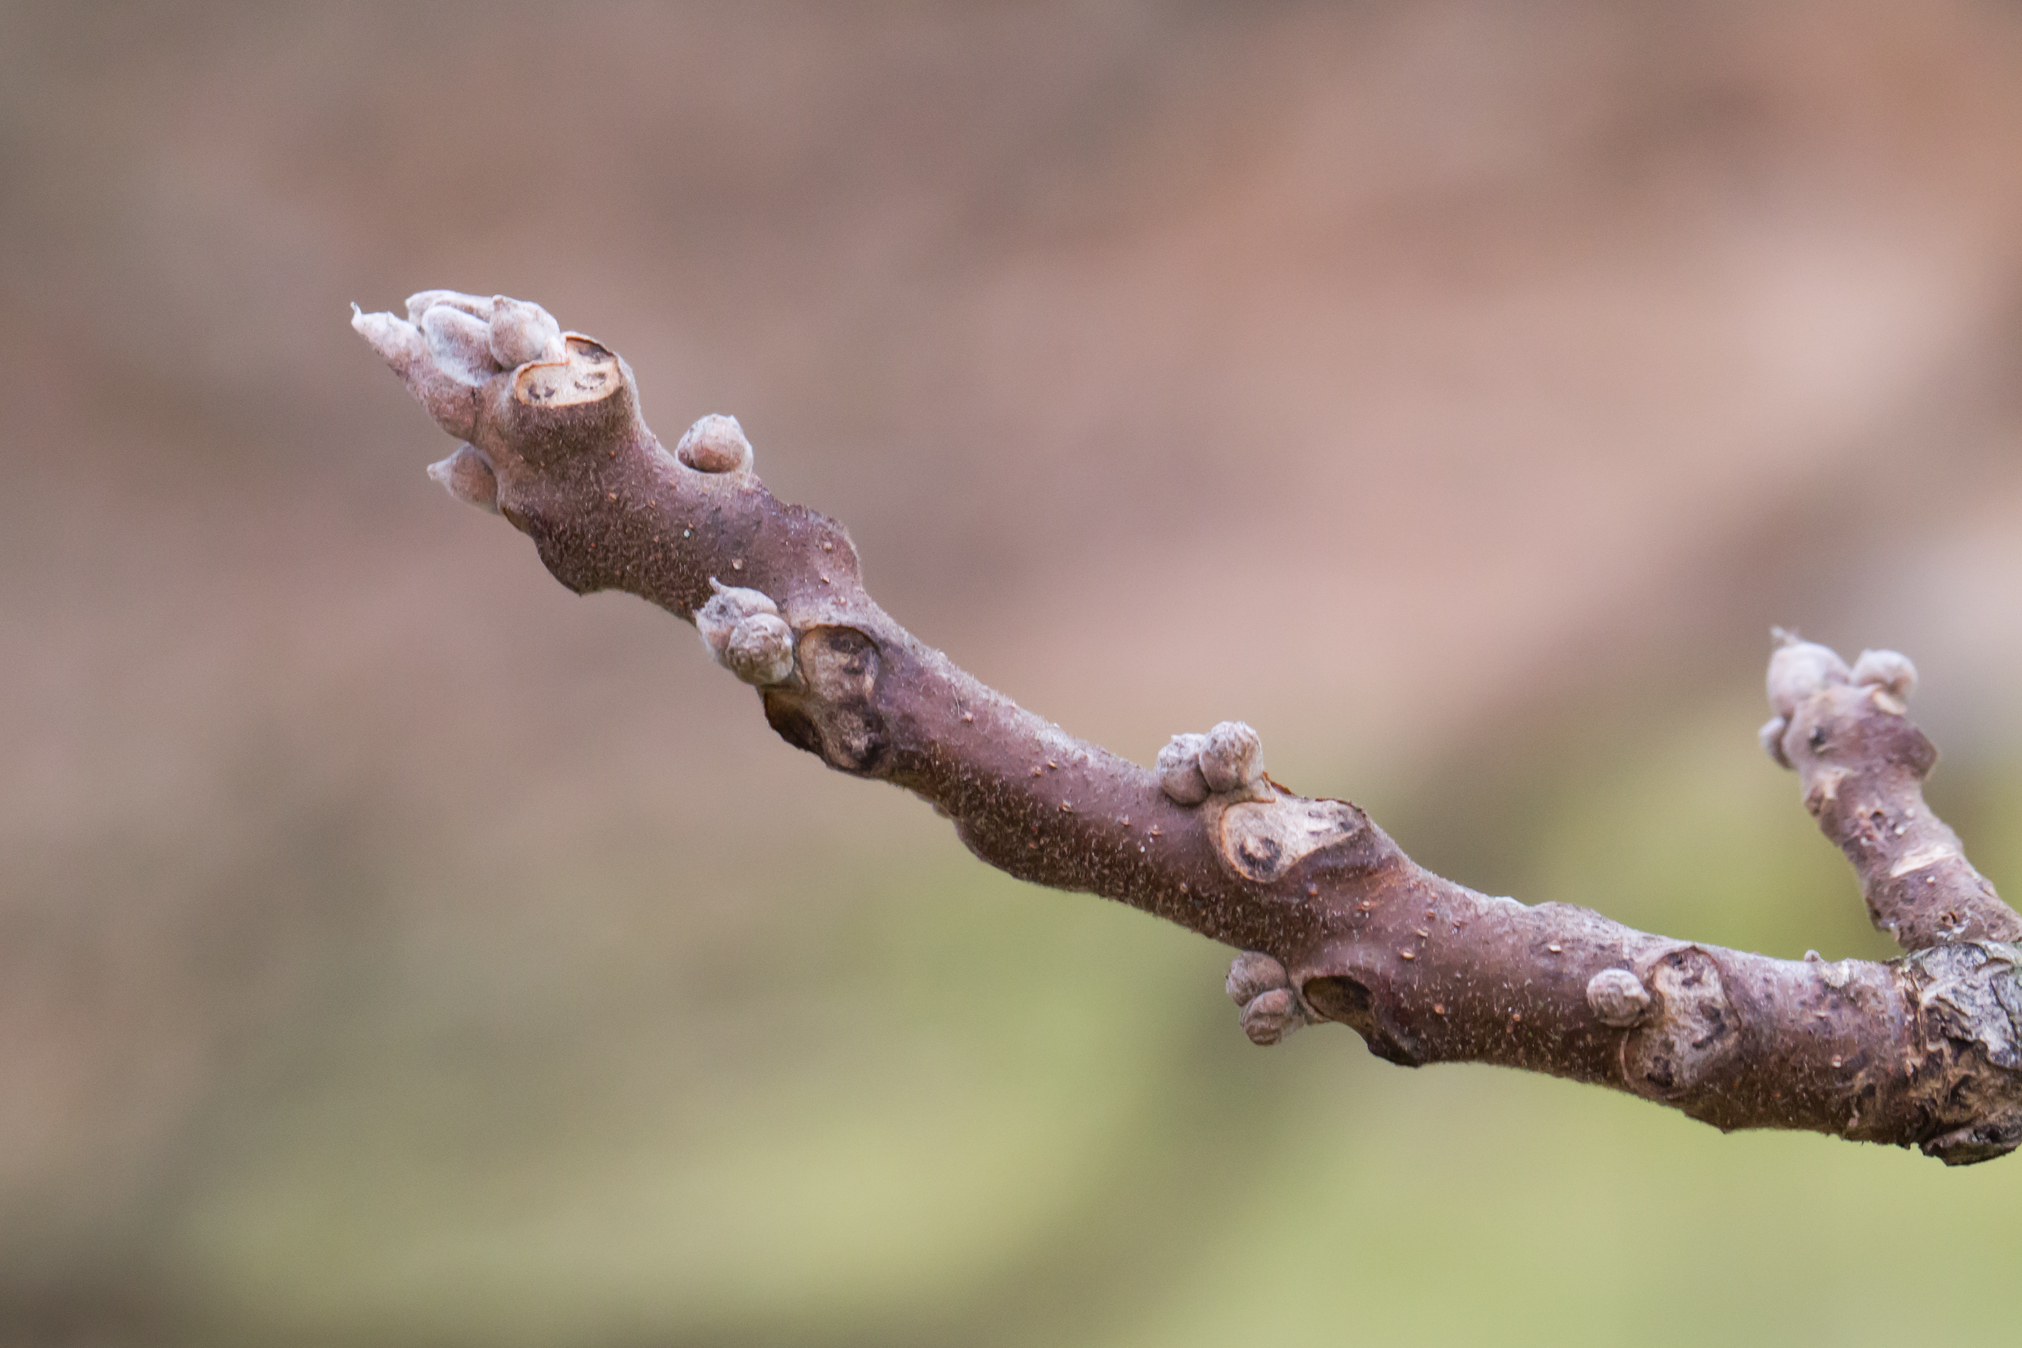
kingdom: Plantae
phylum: Tracheophyta
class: Magnoliopsida
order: Fagales
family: Juglandaceae
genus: Juglans
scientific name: Juglans nigra
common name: Black walnut
